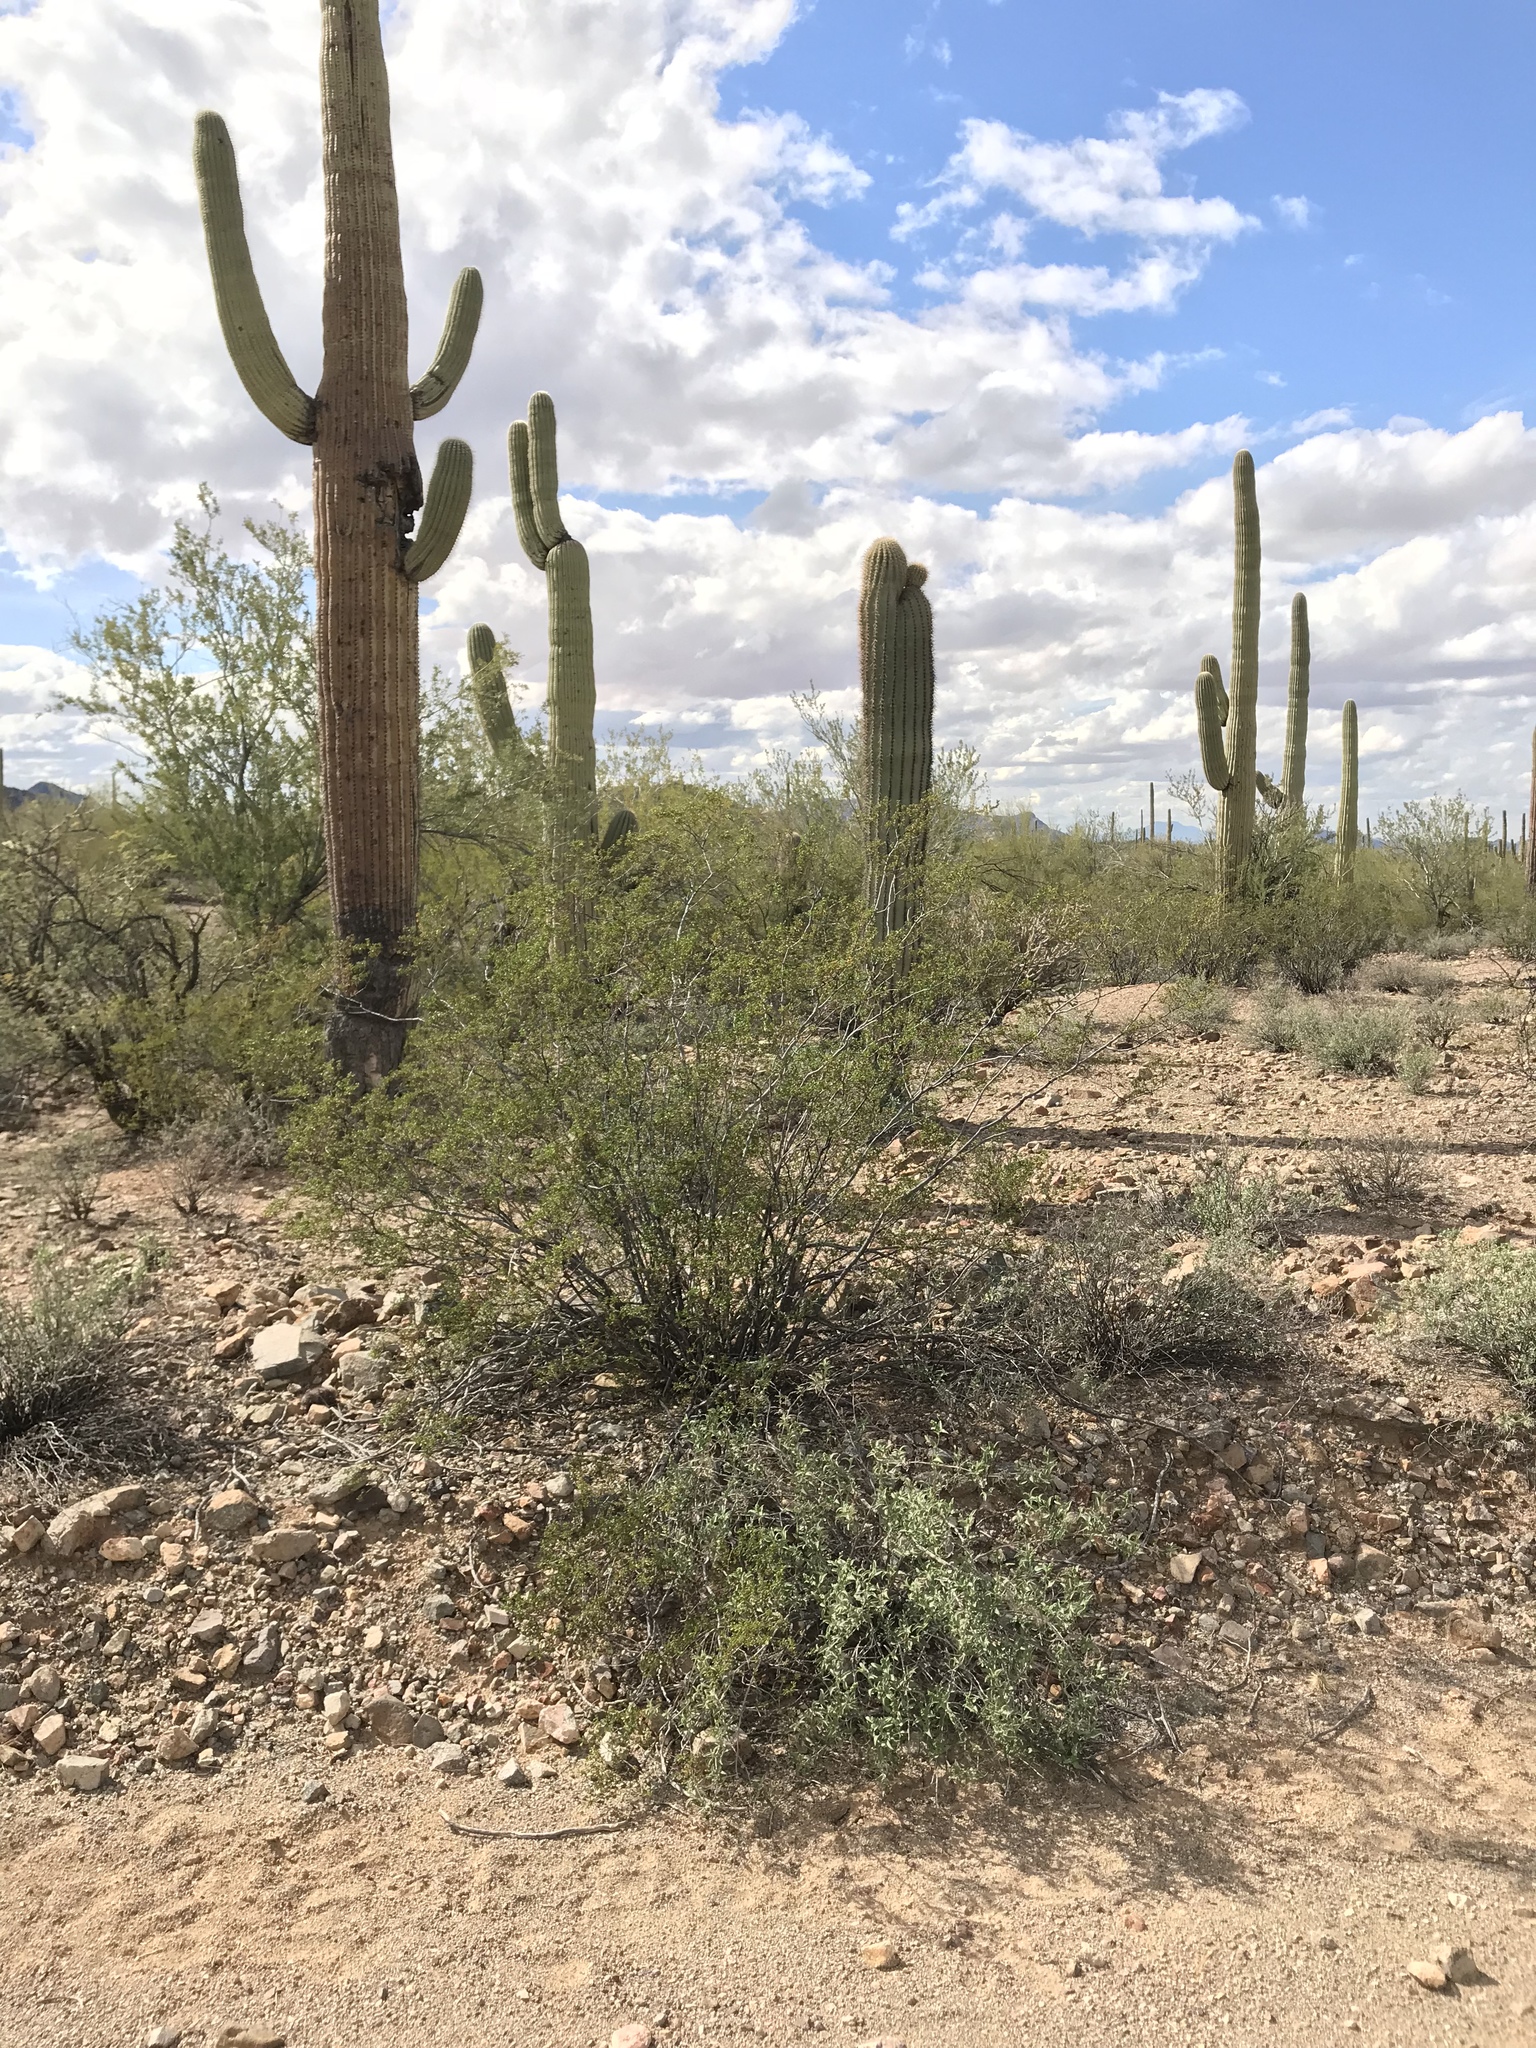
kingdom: Plantae
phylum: Tracheophyta
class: Magnoliopsida
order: Zygophyllales
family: Zygophyllaceae
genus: Larrea
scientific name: Larrea tridentata
